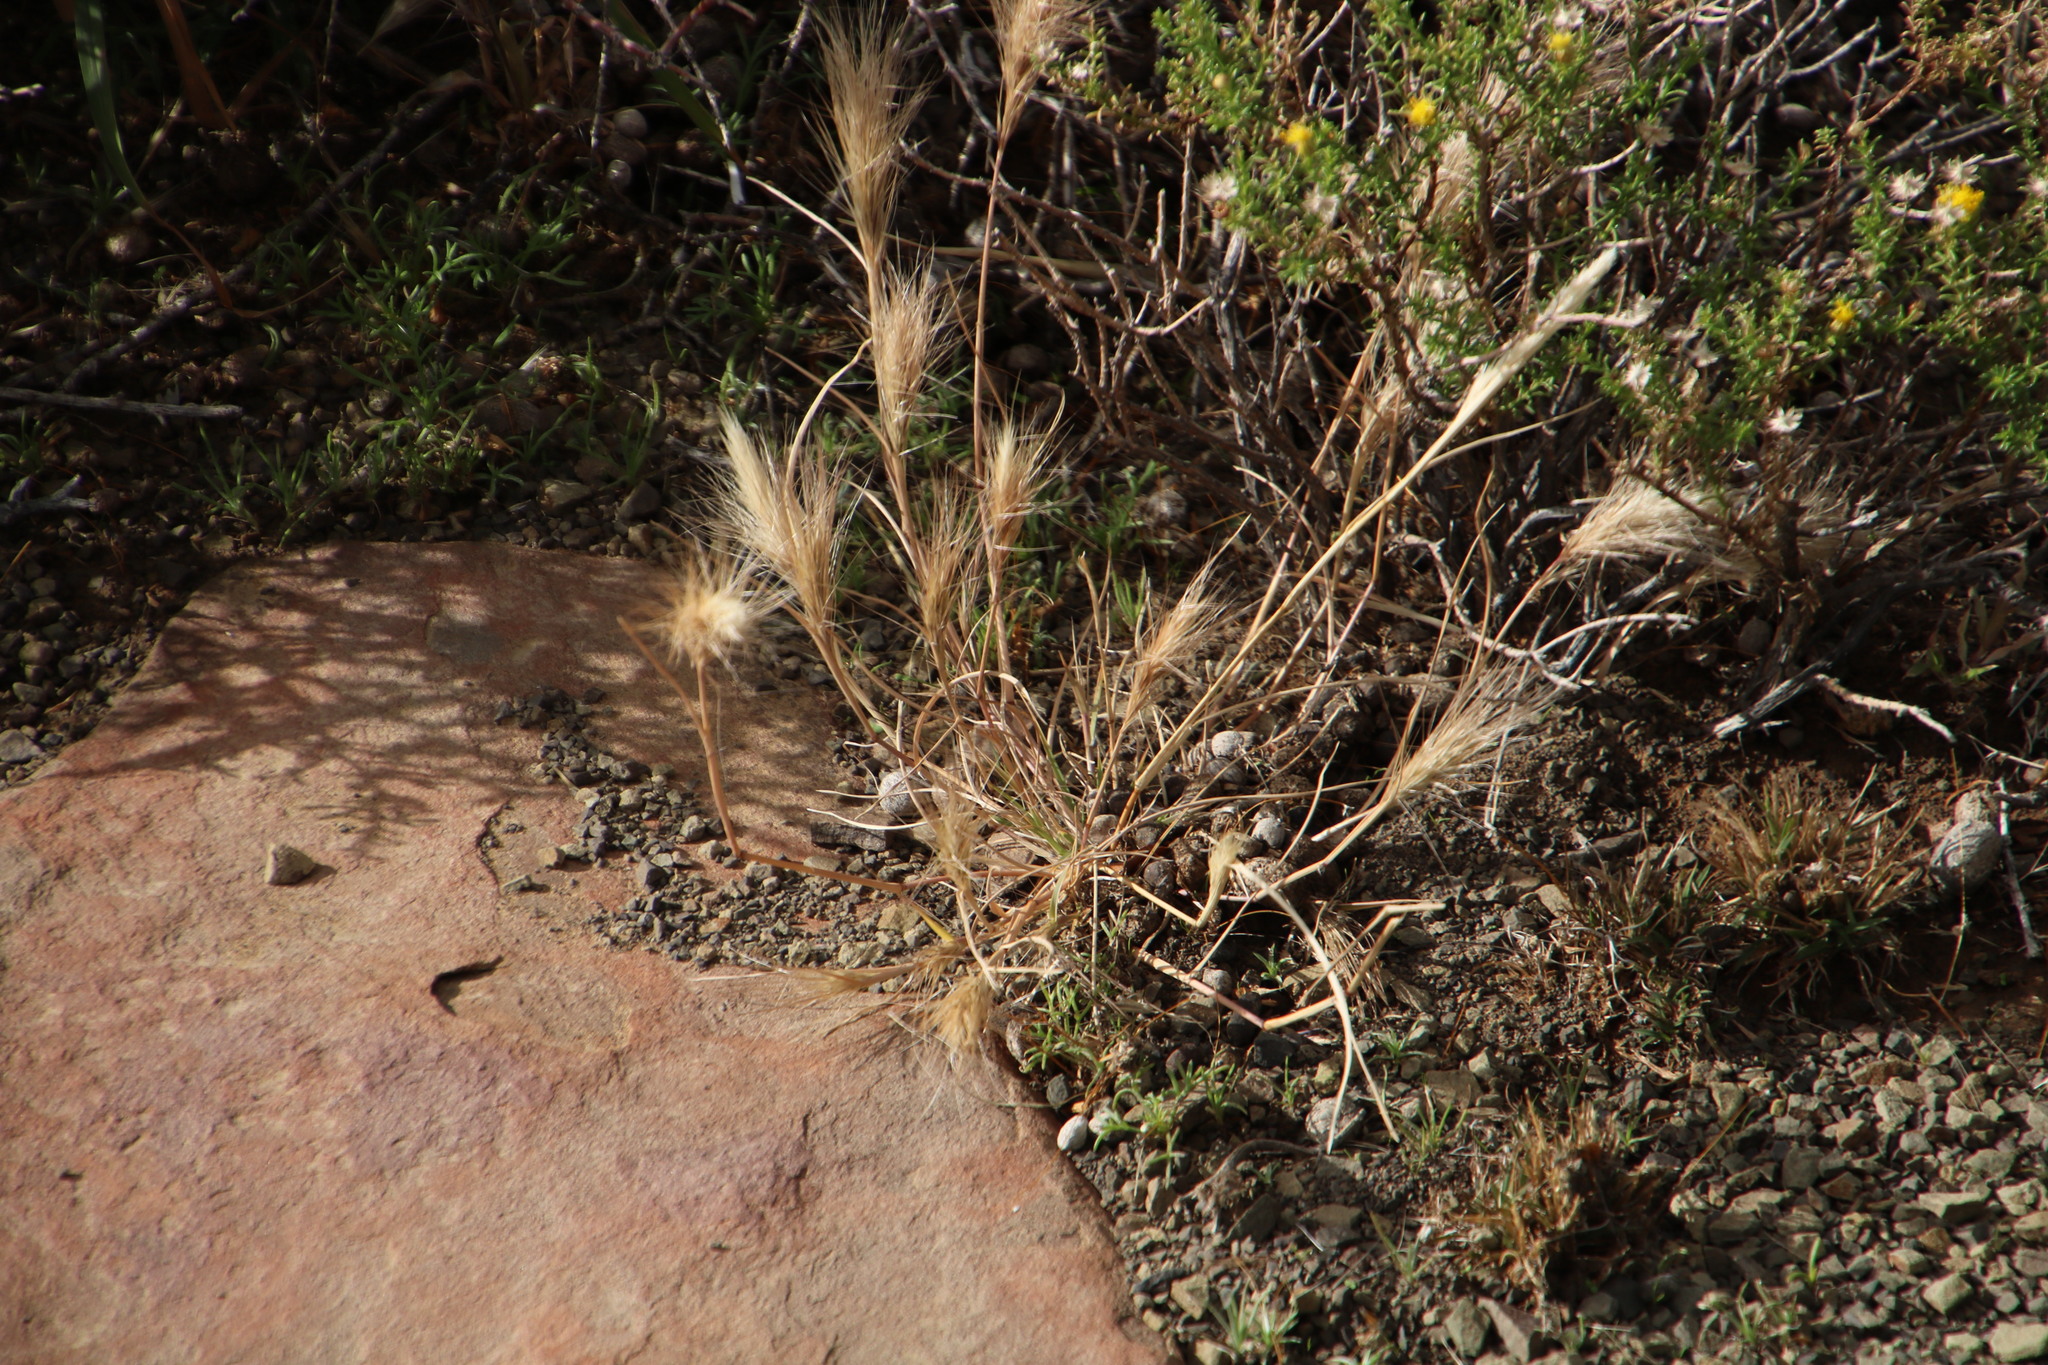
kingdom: Plantae
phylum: Tracheophyta
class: Liliopsida
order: Poales
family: Poaceae
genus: Aristida
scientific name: Aristida congesta
